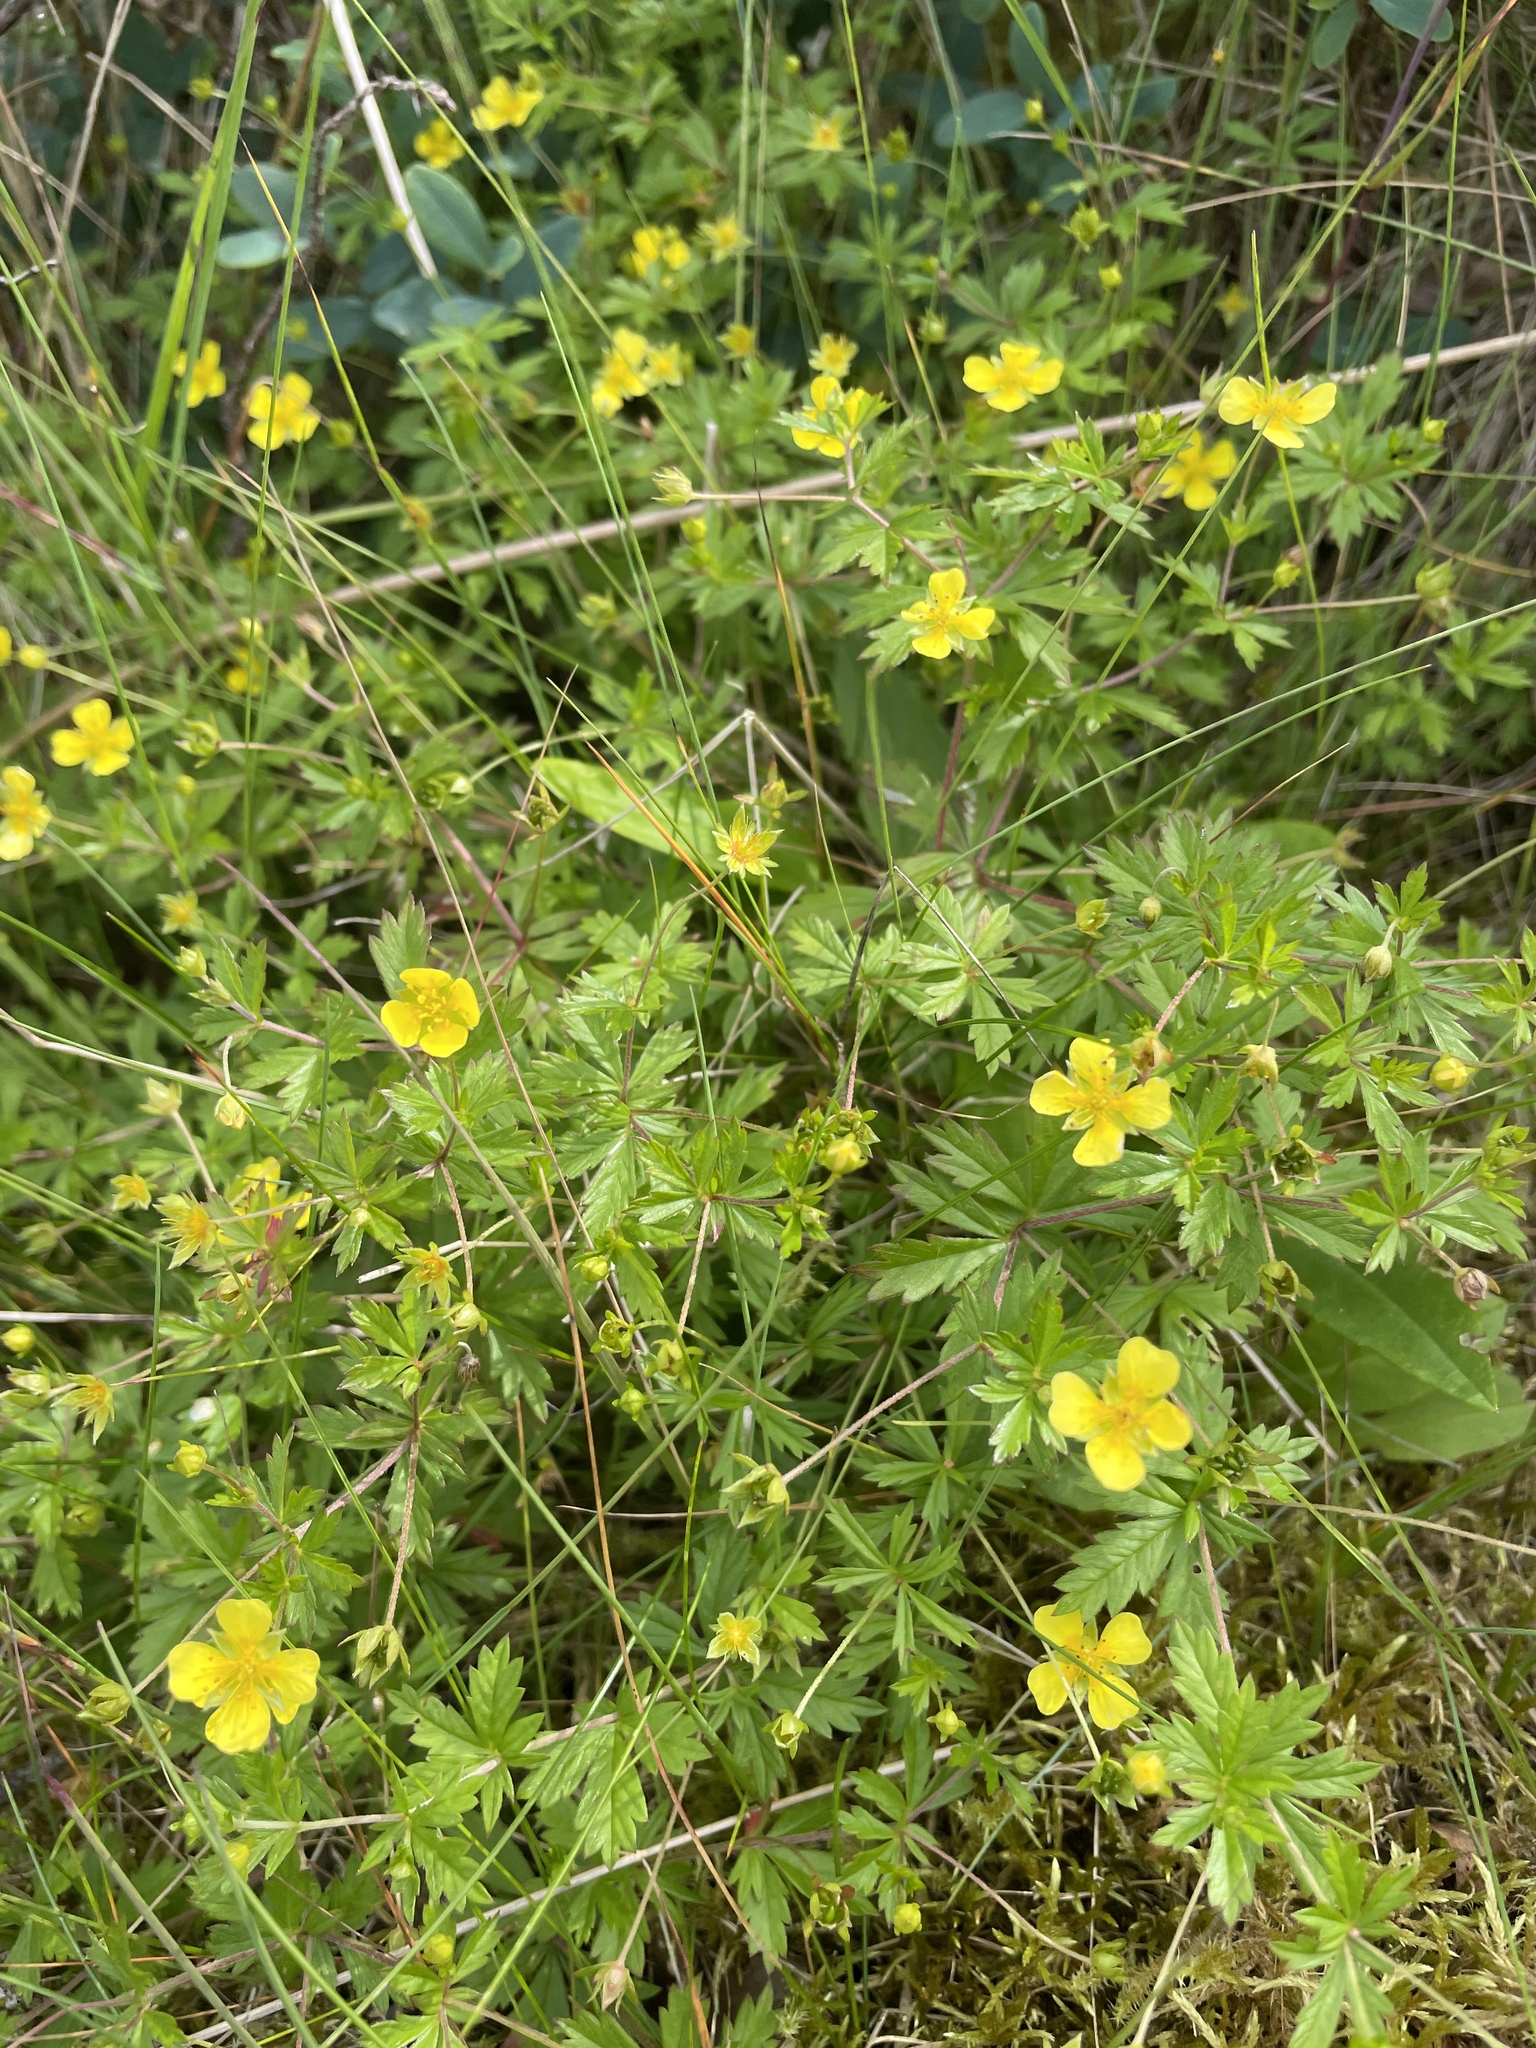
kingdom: Plantae
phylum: Tracheophyta
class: Magnoliopsida
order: Rosales
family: Rosaceae
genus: Potentilla
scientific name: Potentilla erecta
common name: Tormentil
